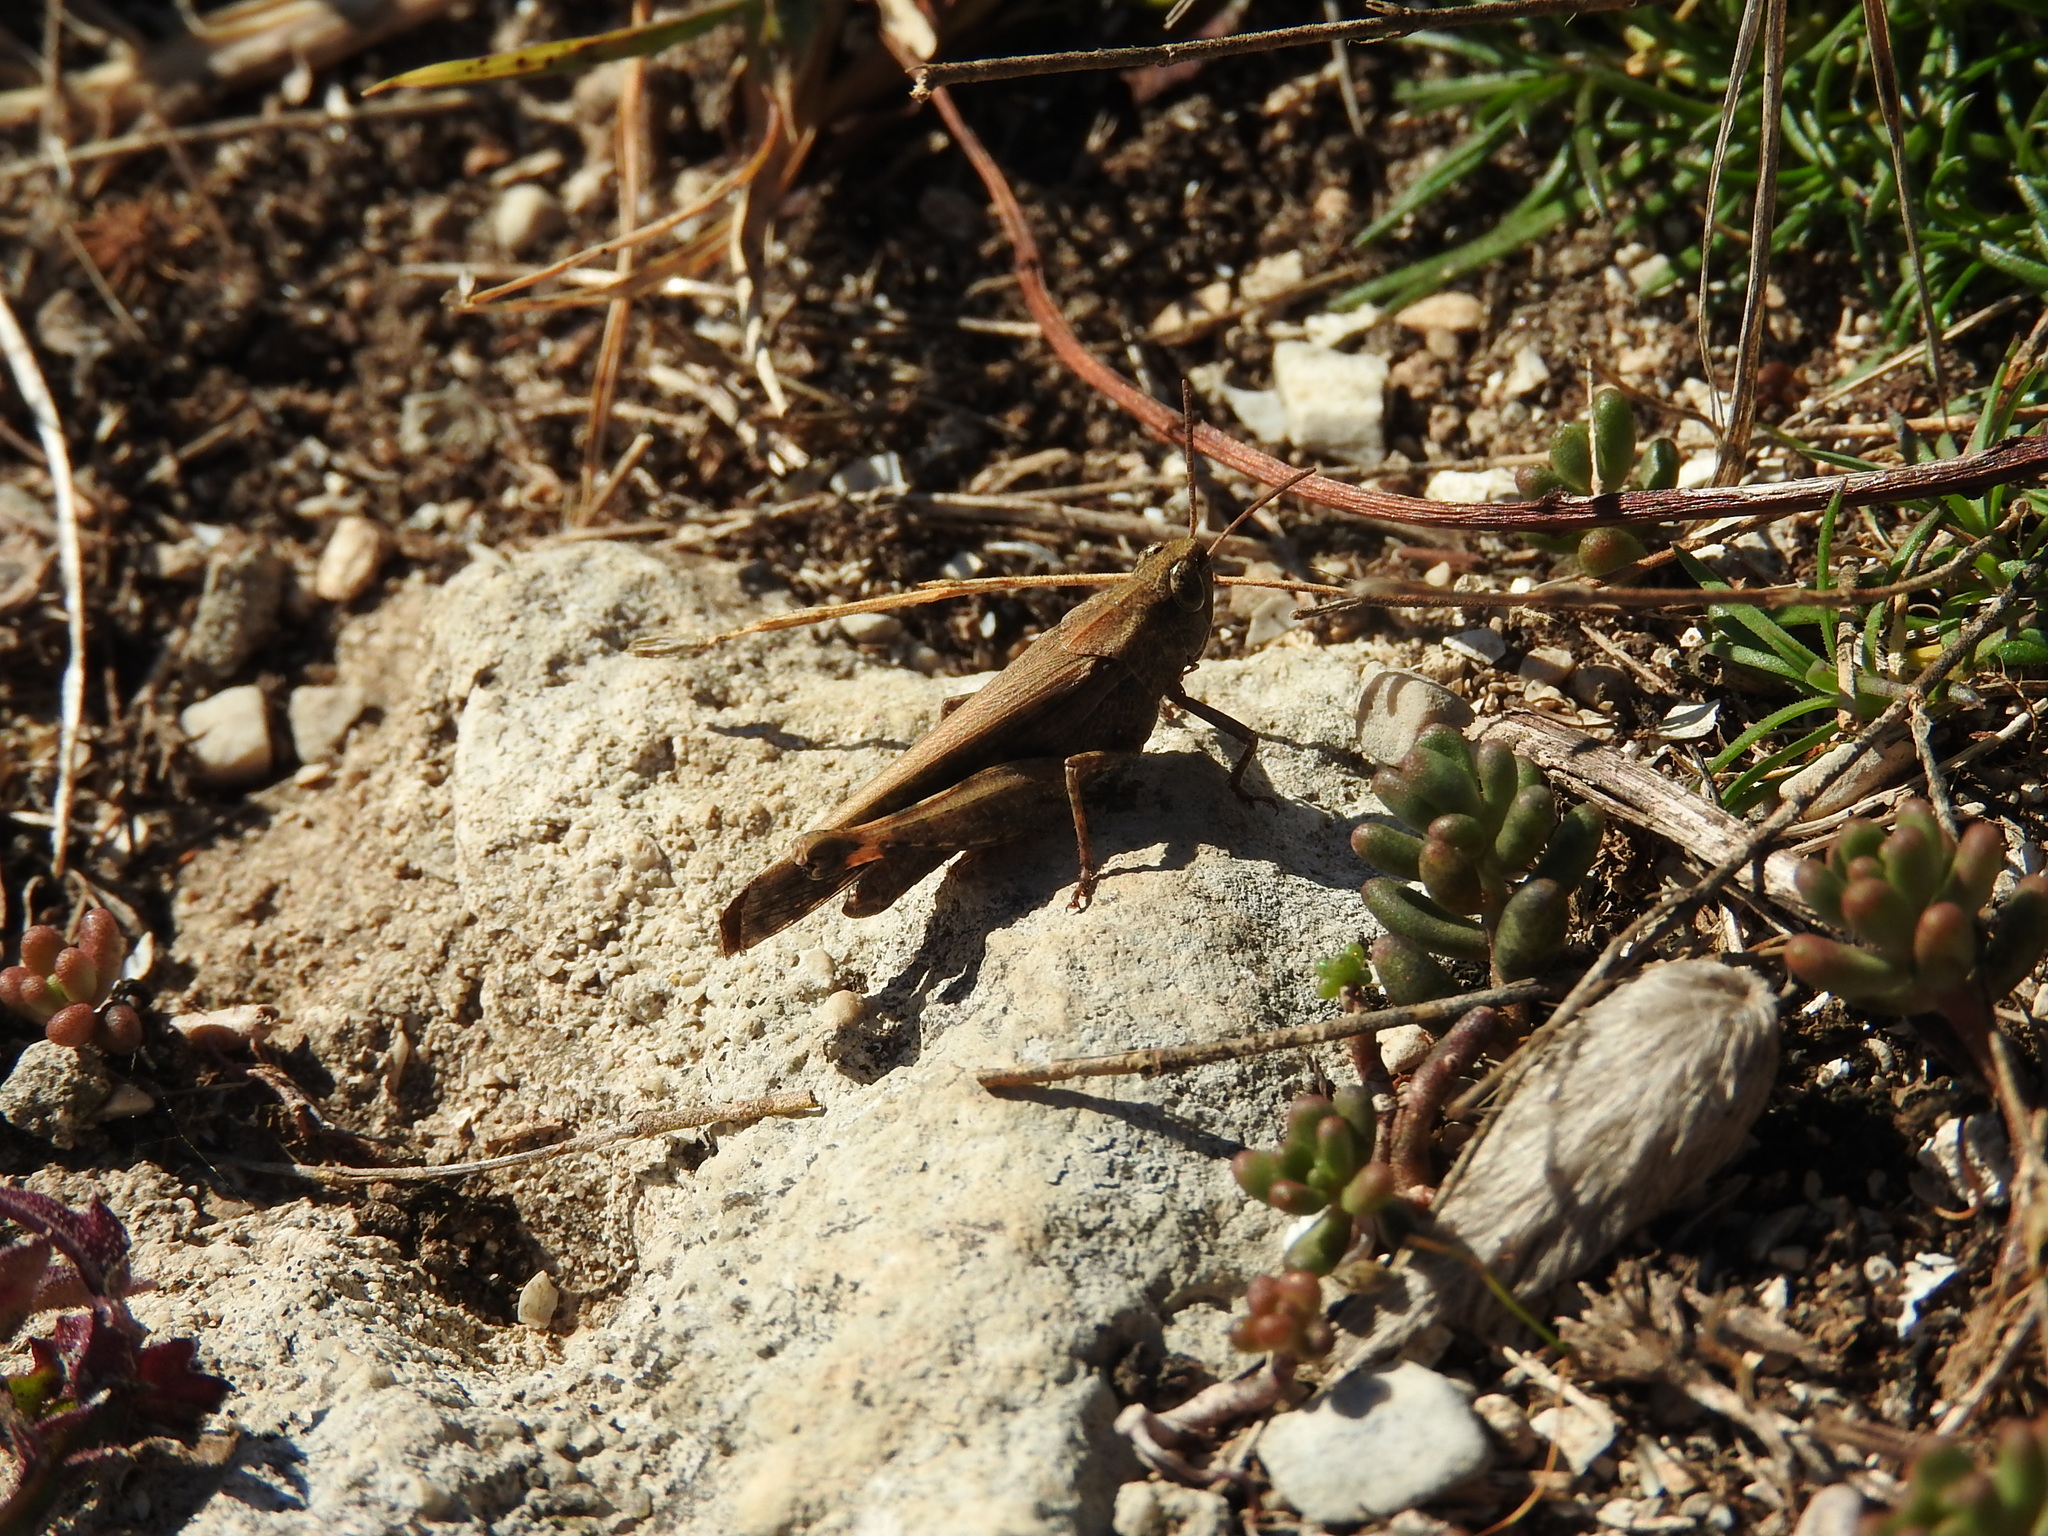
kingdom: Animalia
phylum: Arthropoda
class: Insecta
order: Orthoptera
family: Acrididae
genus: Aiolopus
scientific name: Aiolopus strepens
